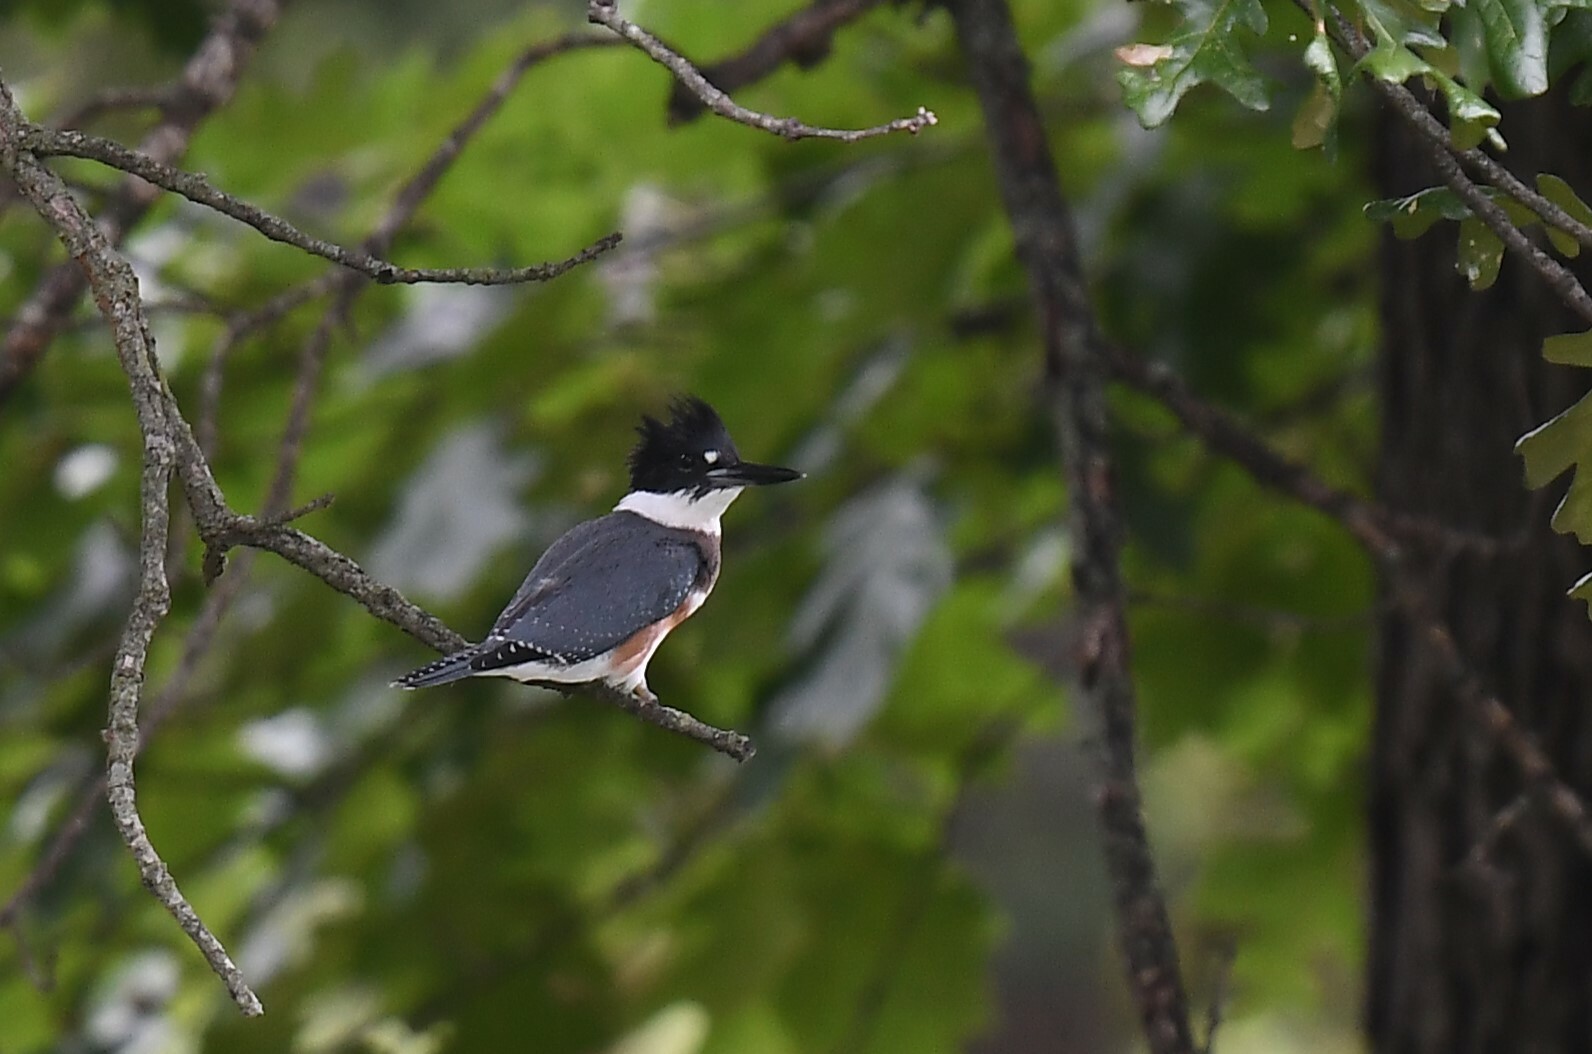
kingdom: Animalia
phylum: Chordata
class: Aves
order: Coraciiformes
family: Alcedinidae
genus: Megaceryle
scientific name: Megaceryle alcyon
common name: Belted kingfisher
